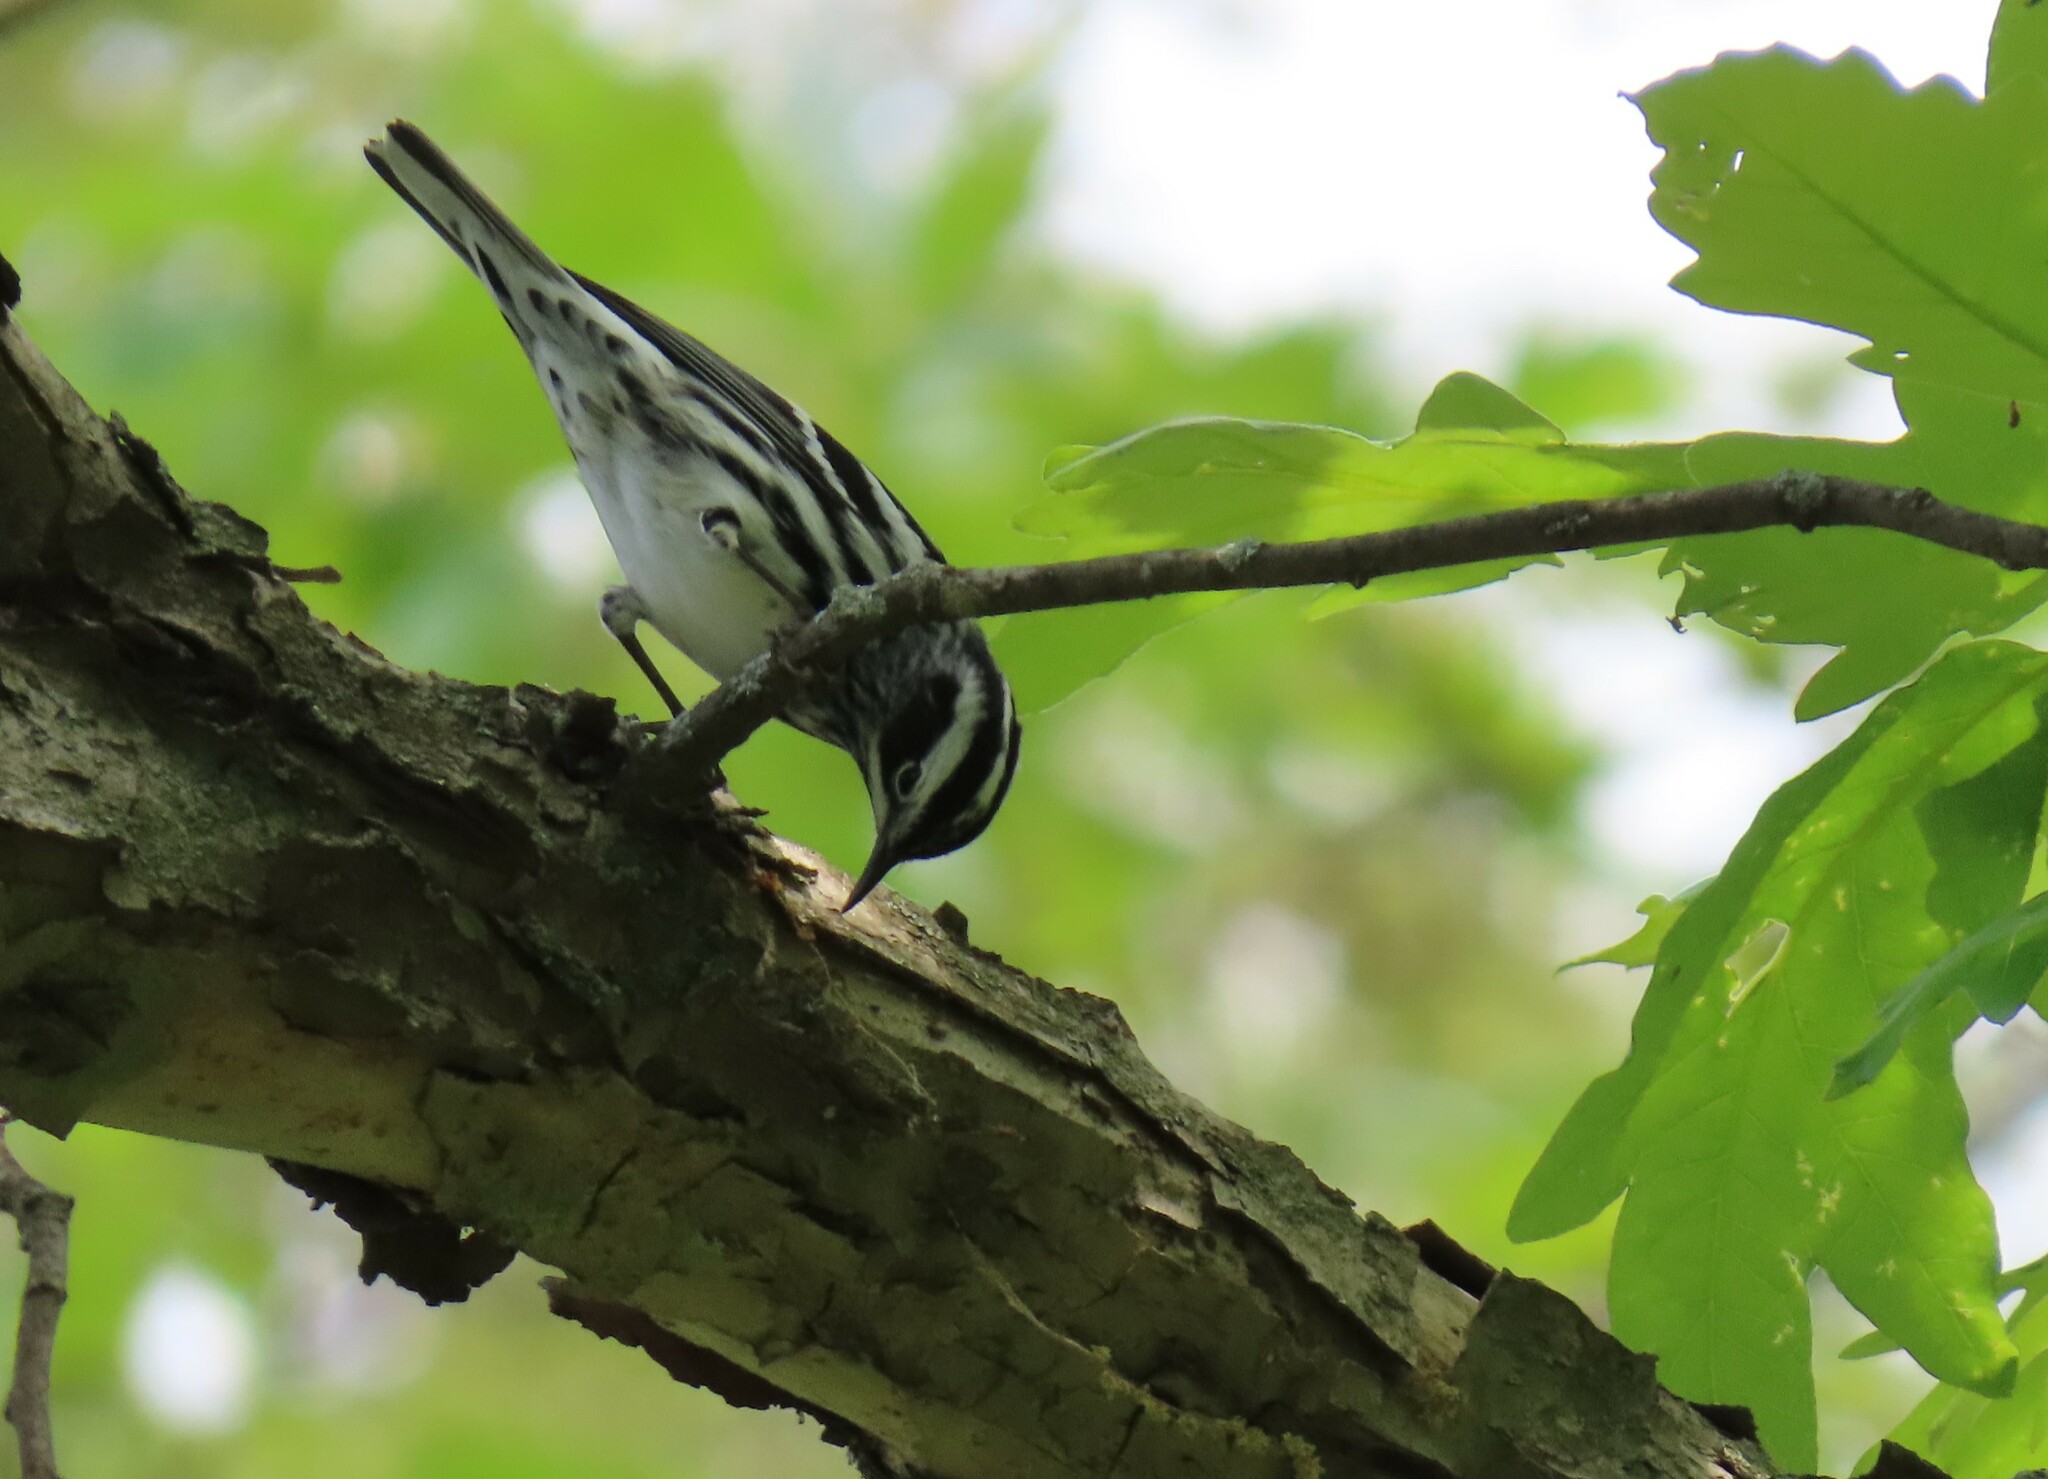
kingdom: Animalia
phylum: Chordata
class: Aves
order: Passeriformes
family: Parulidae
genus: Mniotilta
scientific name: Mniotilta varia
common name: Black-and-white warbler
